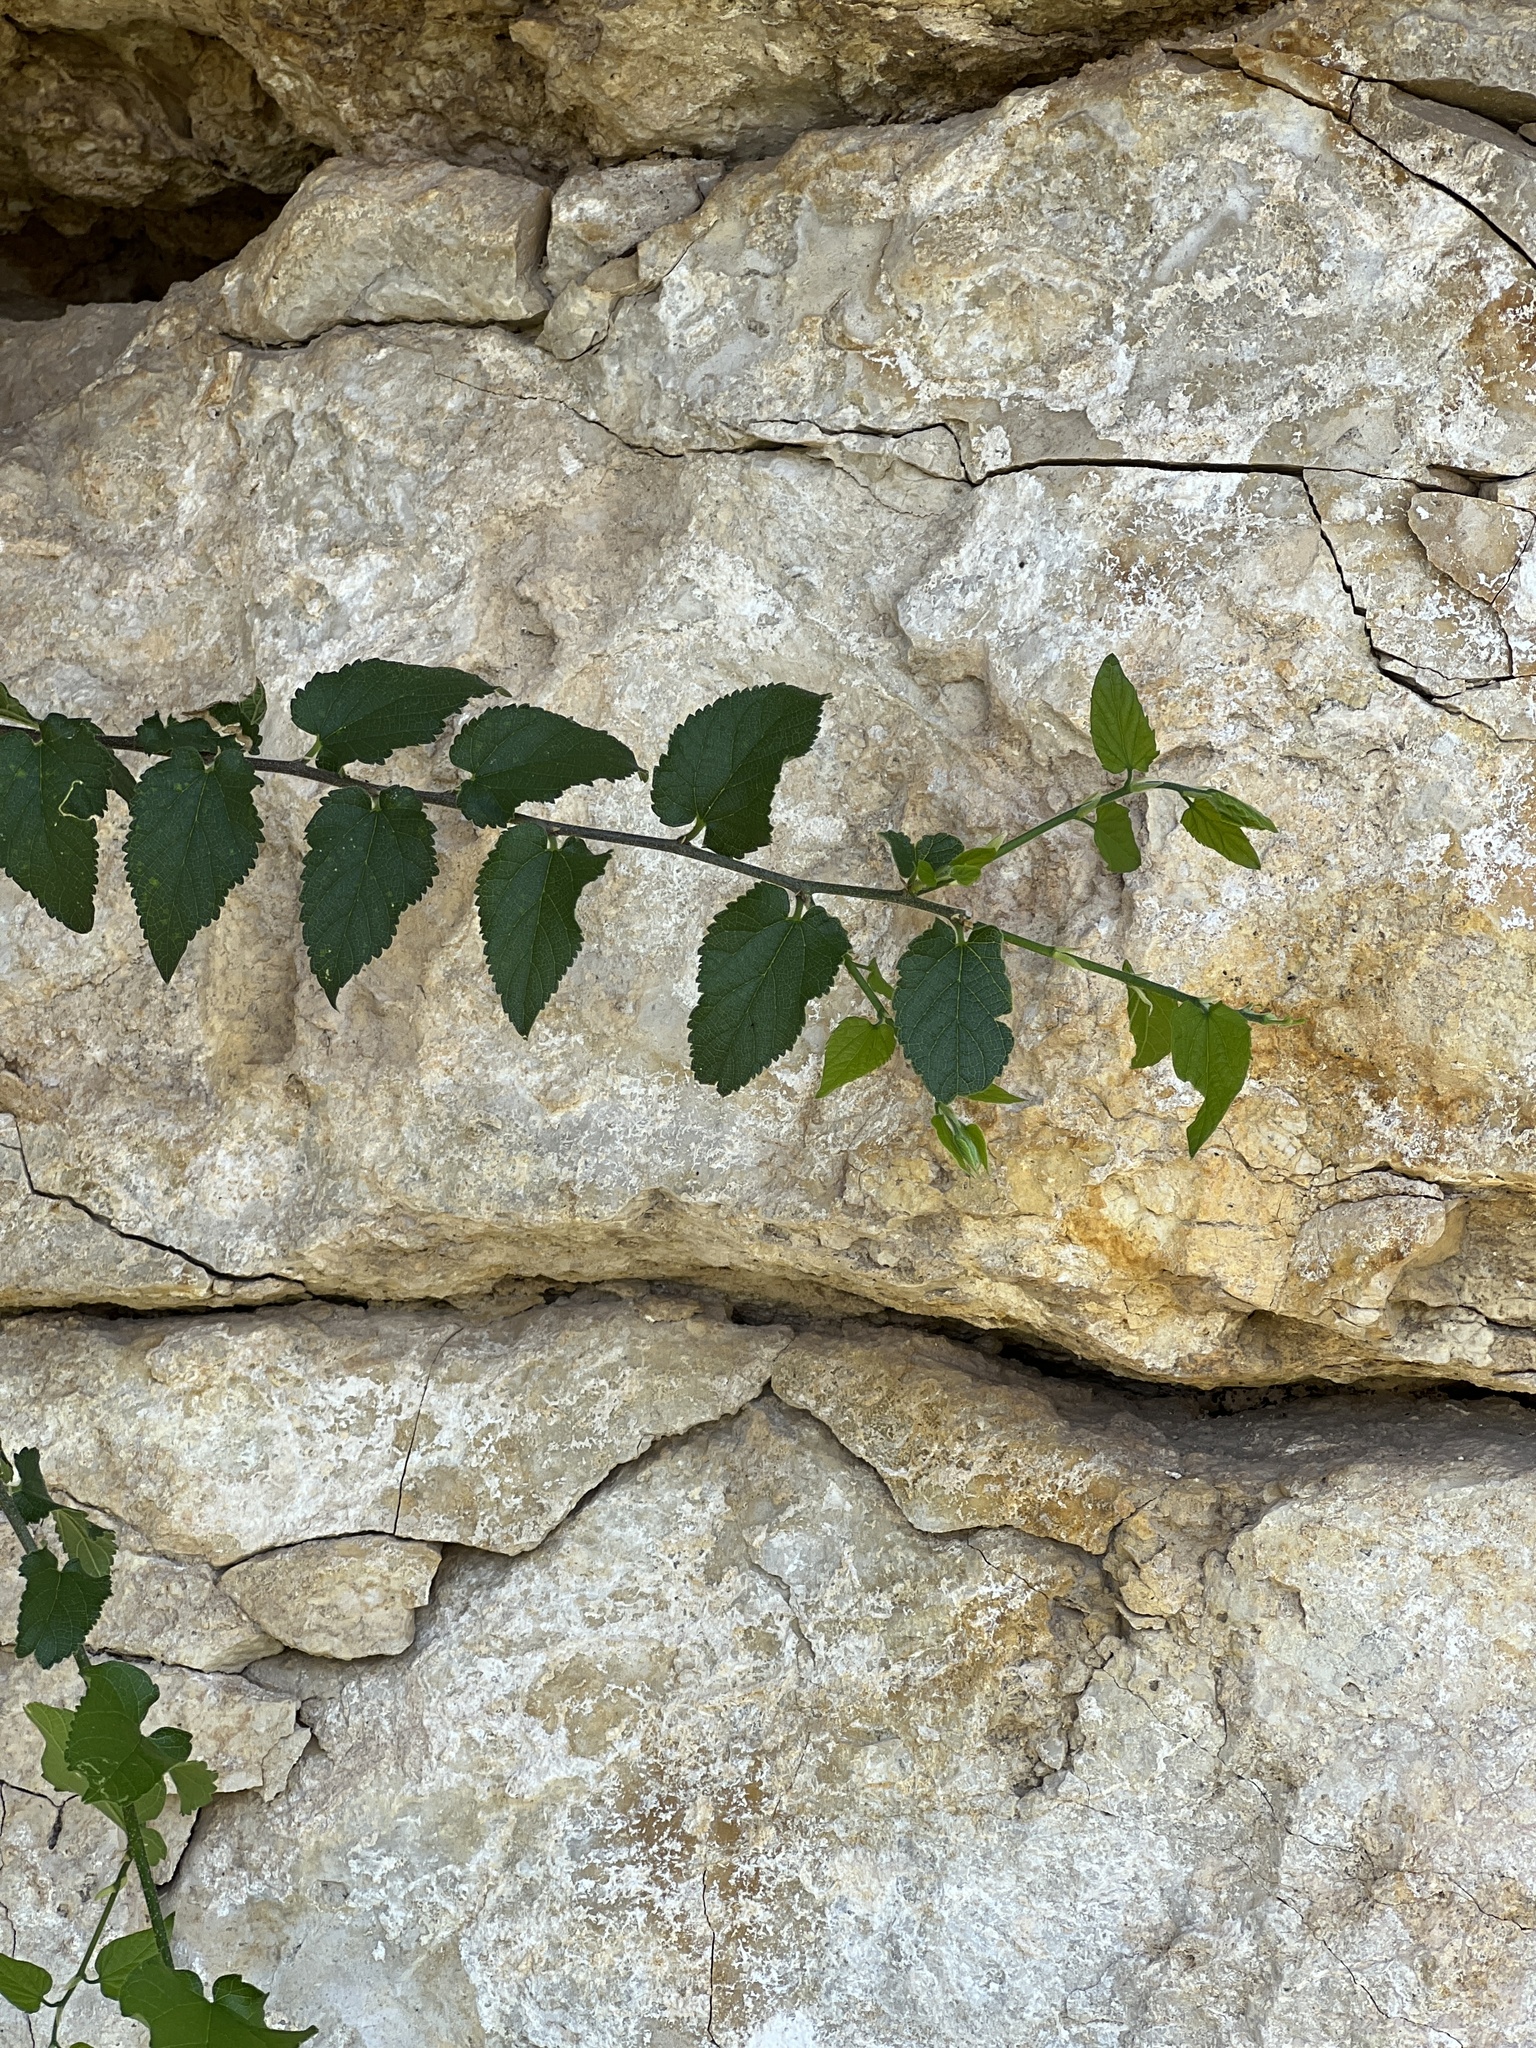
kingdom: Plantae
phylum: Tracheophyta
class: Magnoliopsida
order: Rosales
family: Cannabaceae
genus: Celtis
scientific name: Celtis reticulata
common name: Netleaf hackberry
